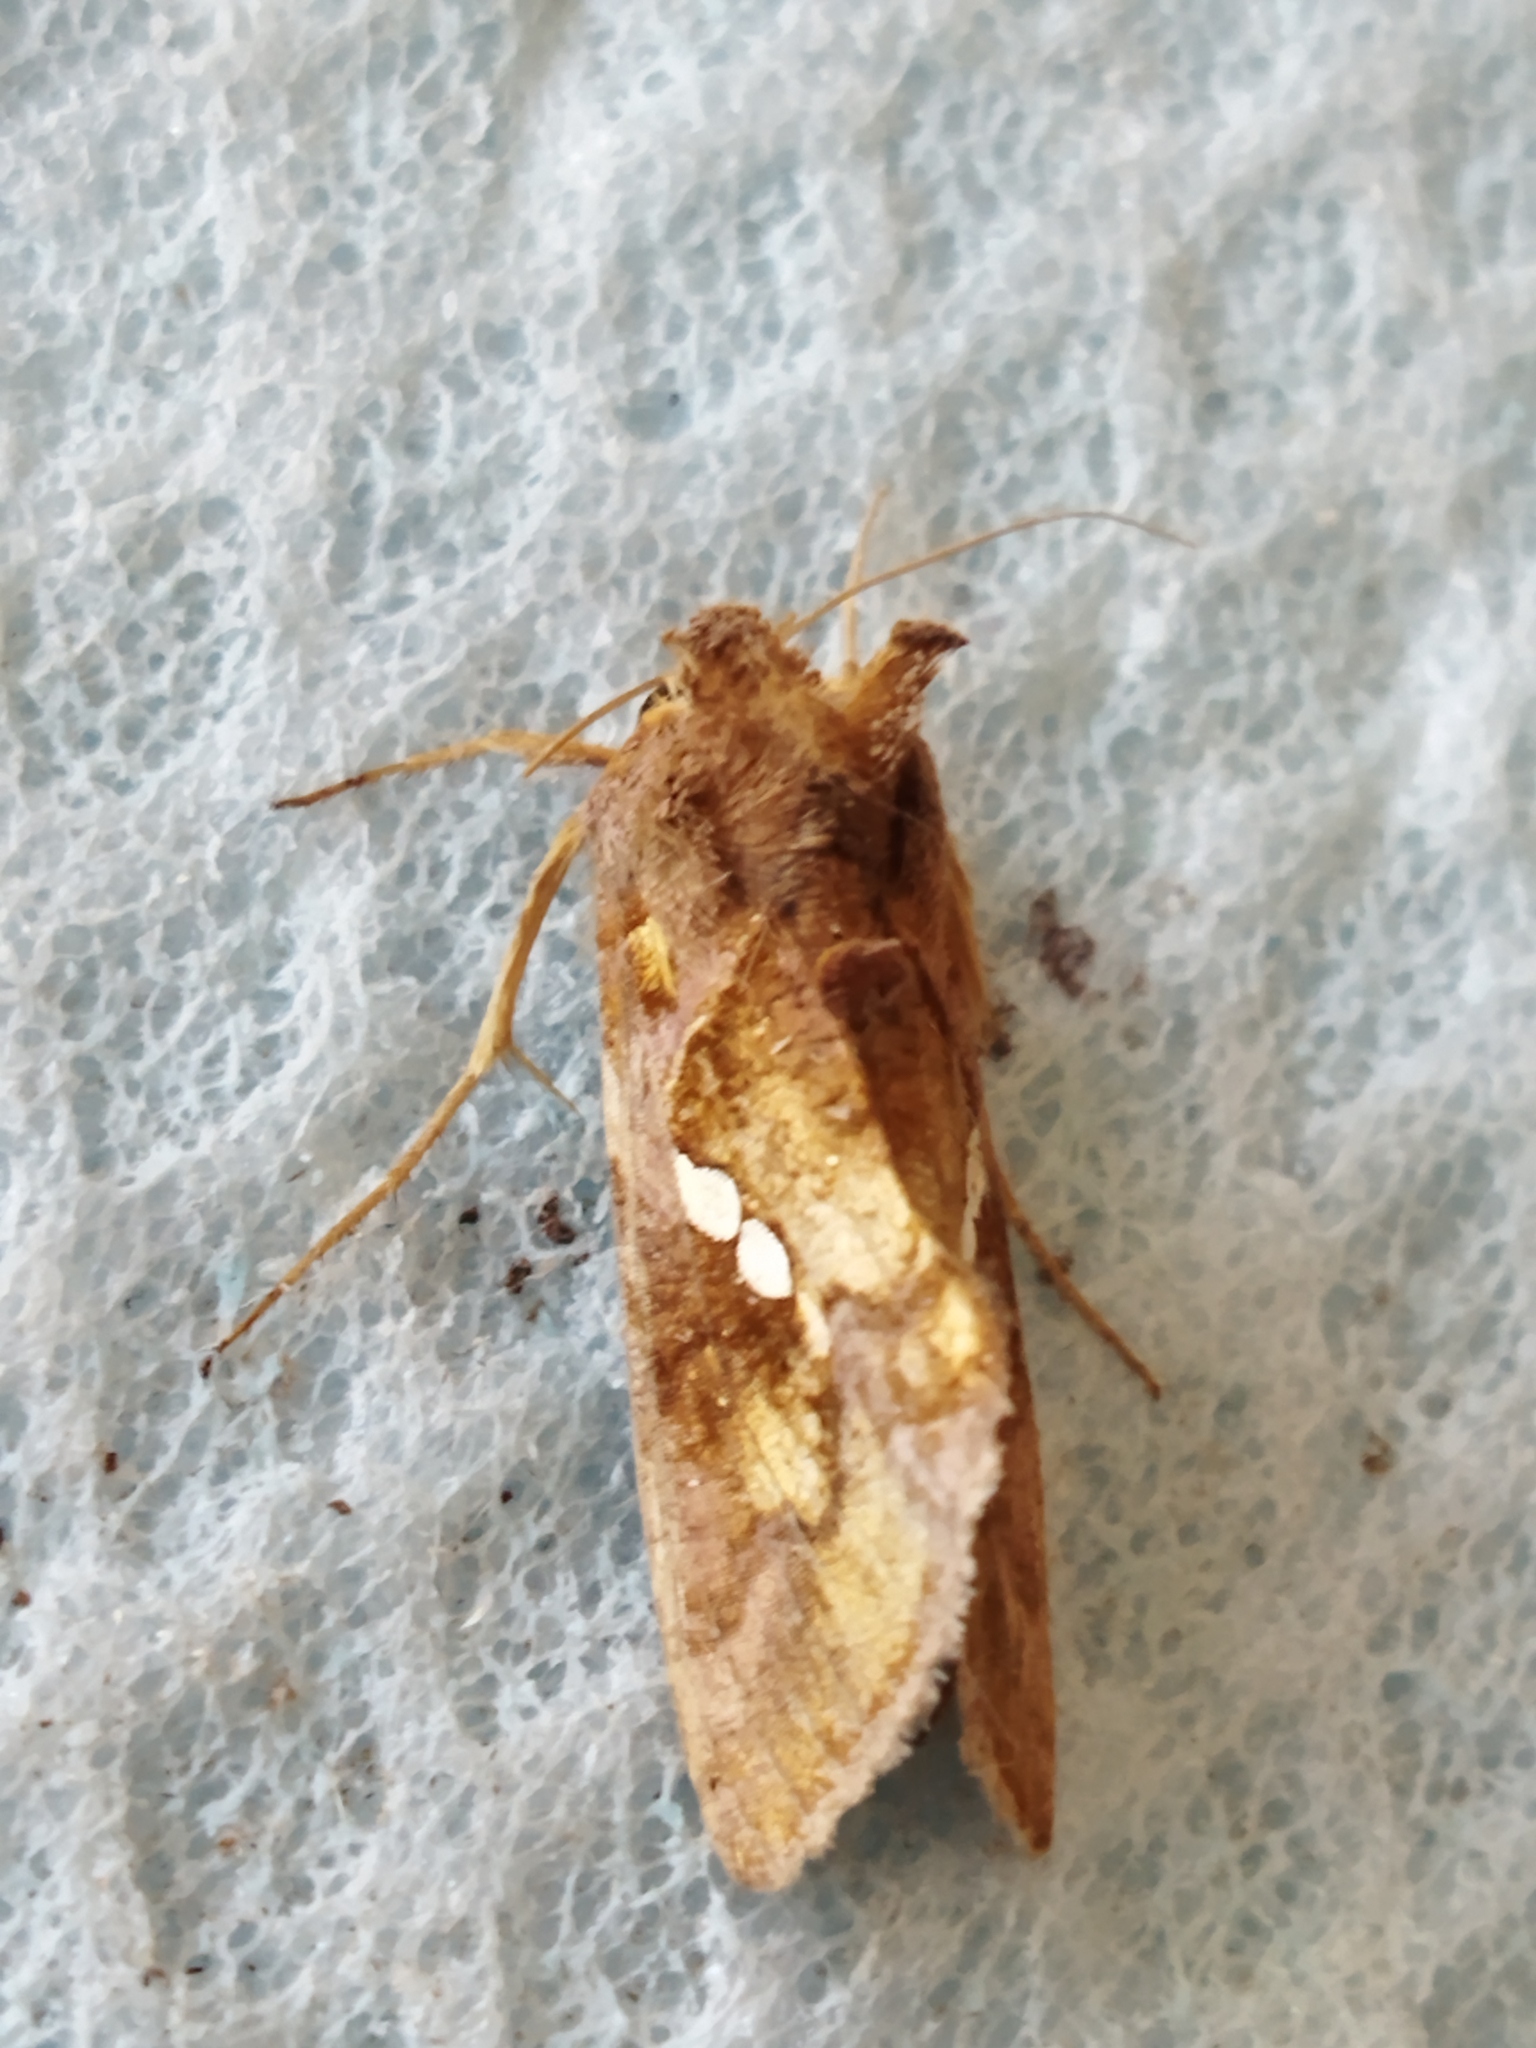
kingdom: Animalia
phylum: Arthropoda
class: Insecta
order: Lepidoptera
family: Noctuidae
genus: Chrysodeixis
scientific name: Chrysodeixis chalcites
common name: Golden twin-spot
